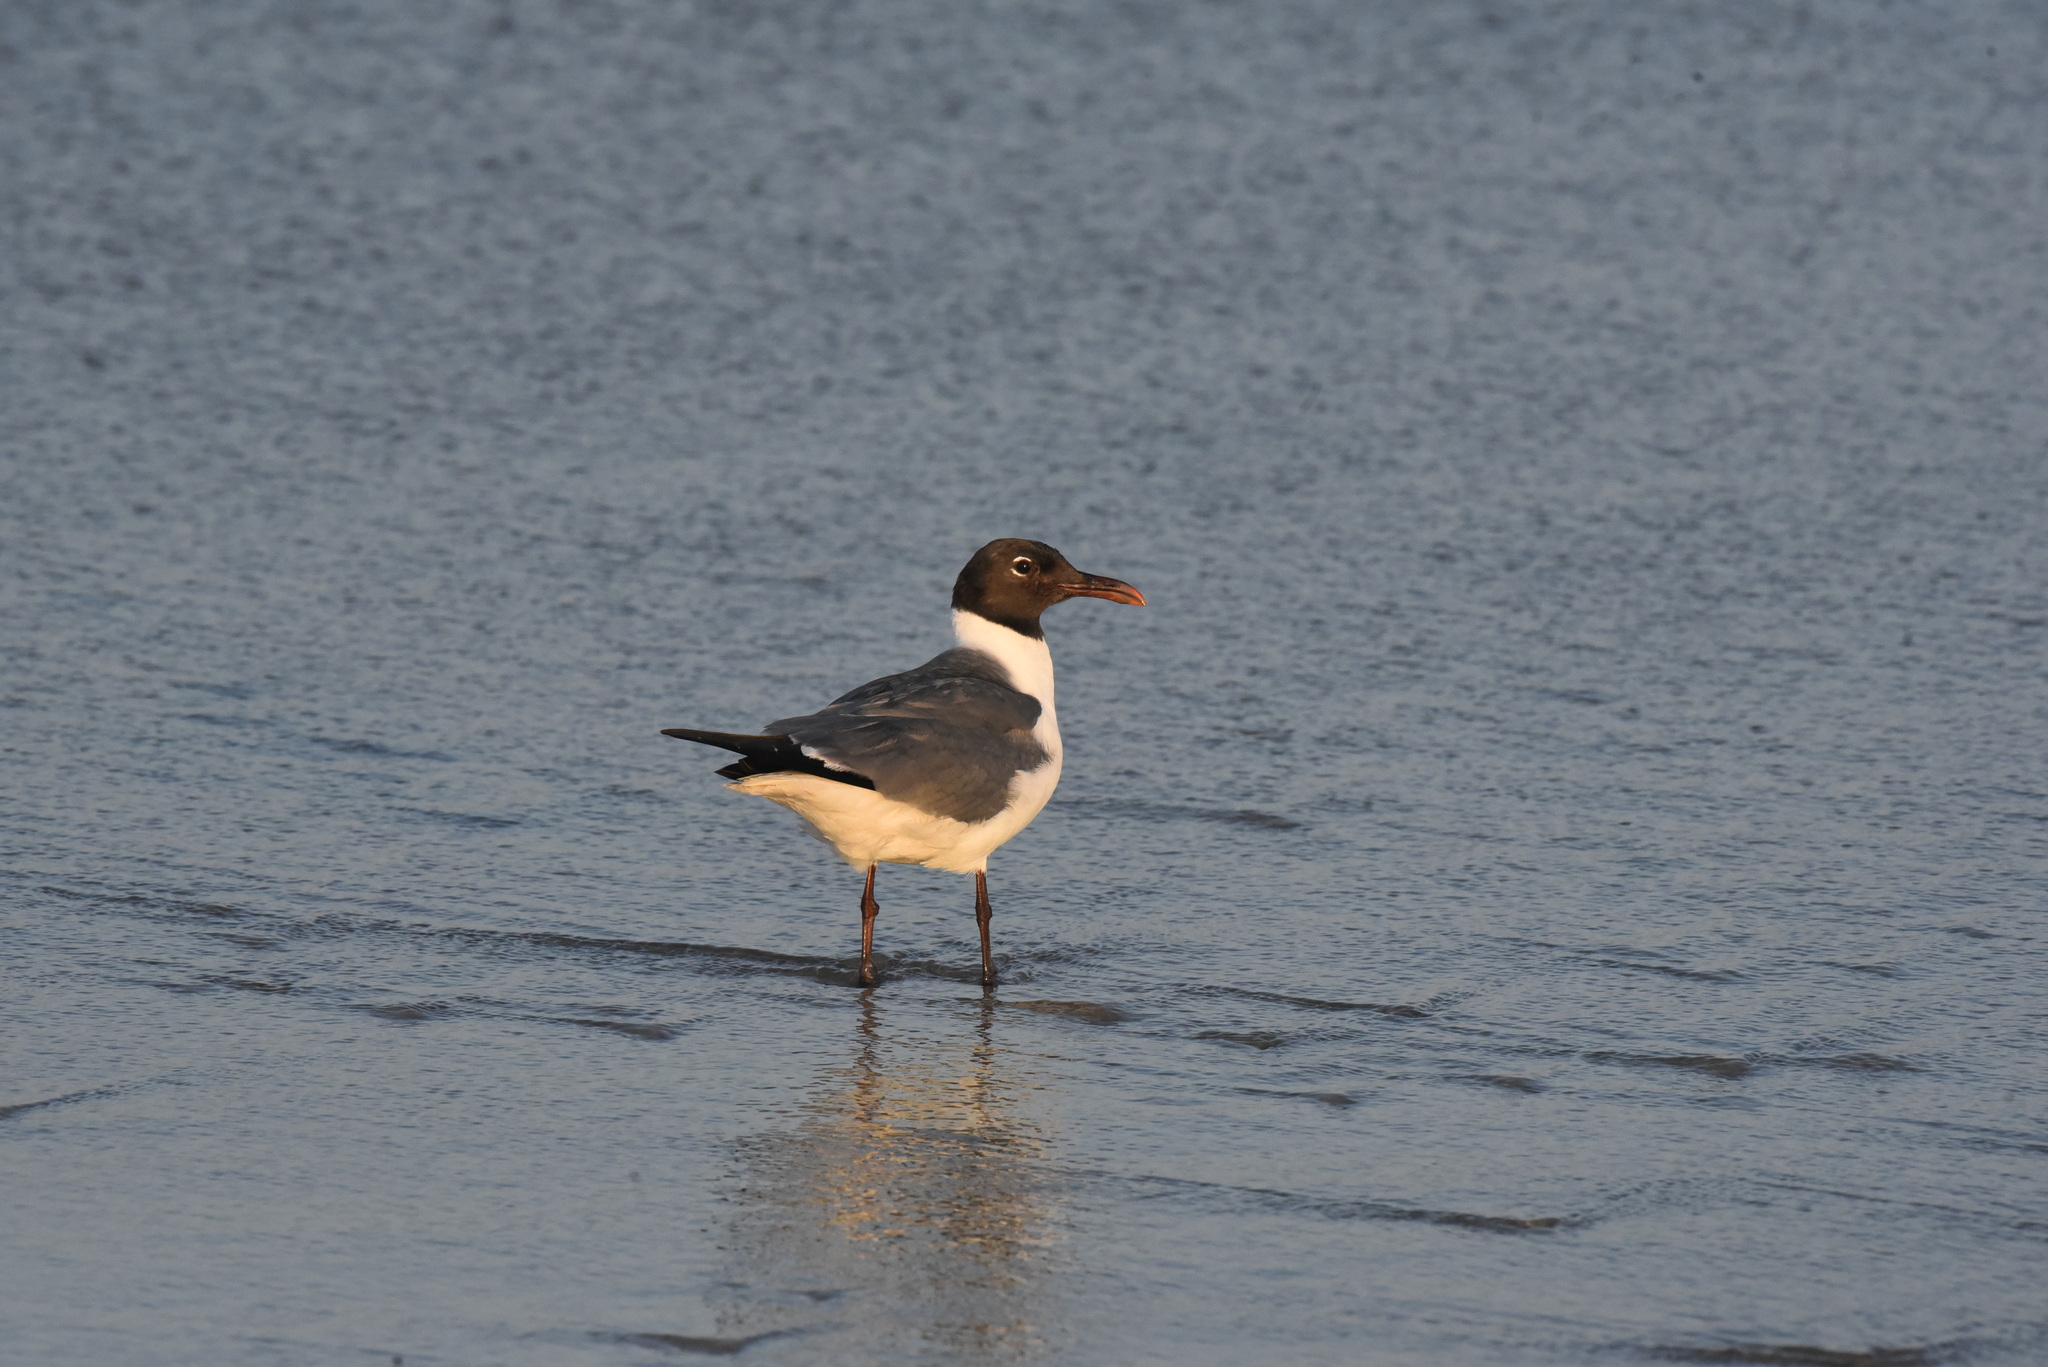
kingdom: Animalia
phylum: Chordata
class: Aves
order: Charadriiformes
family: Laridae
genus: Leucophaeus
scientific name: Leucophaeus atricilla
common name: Laughing gull
